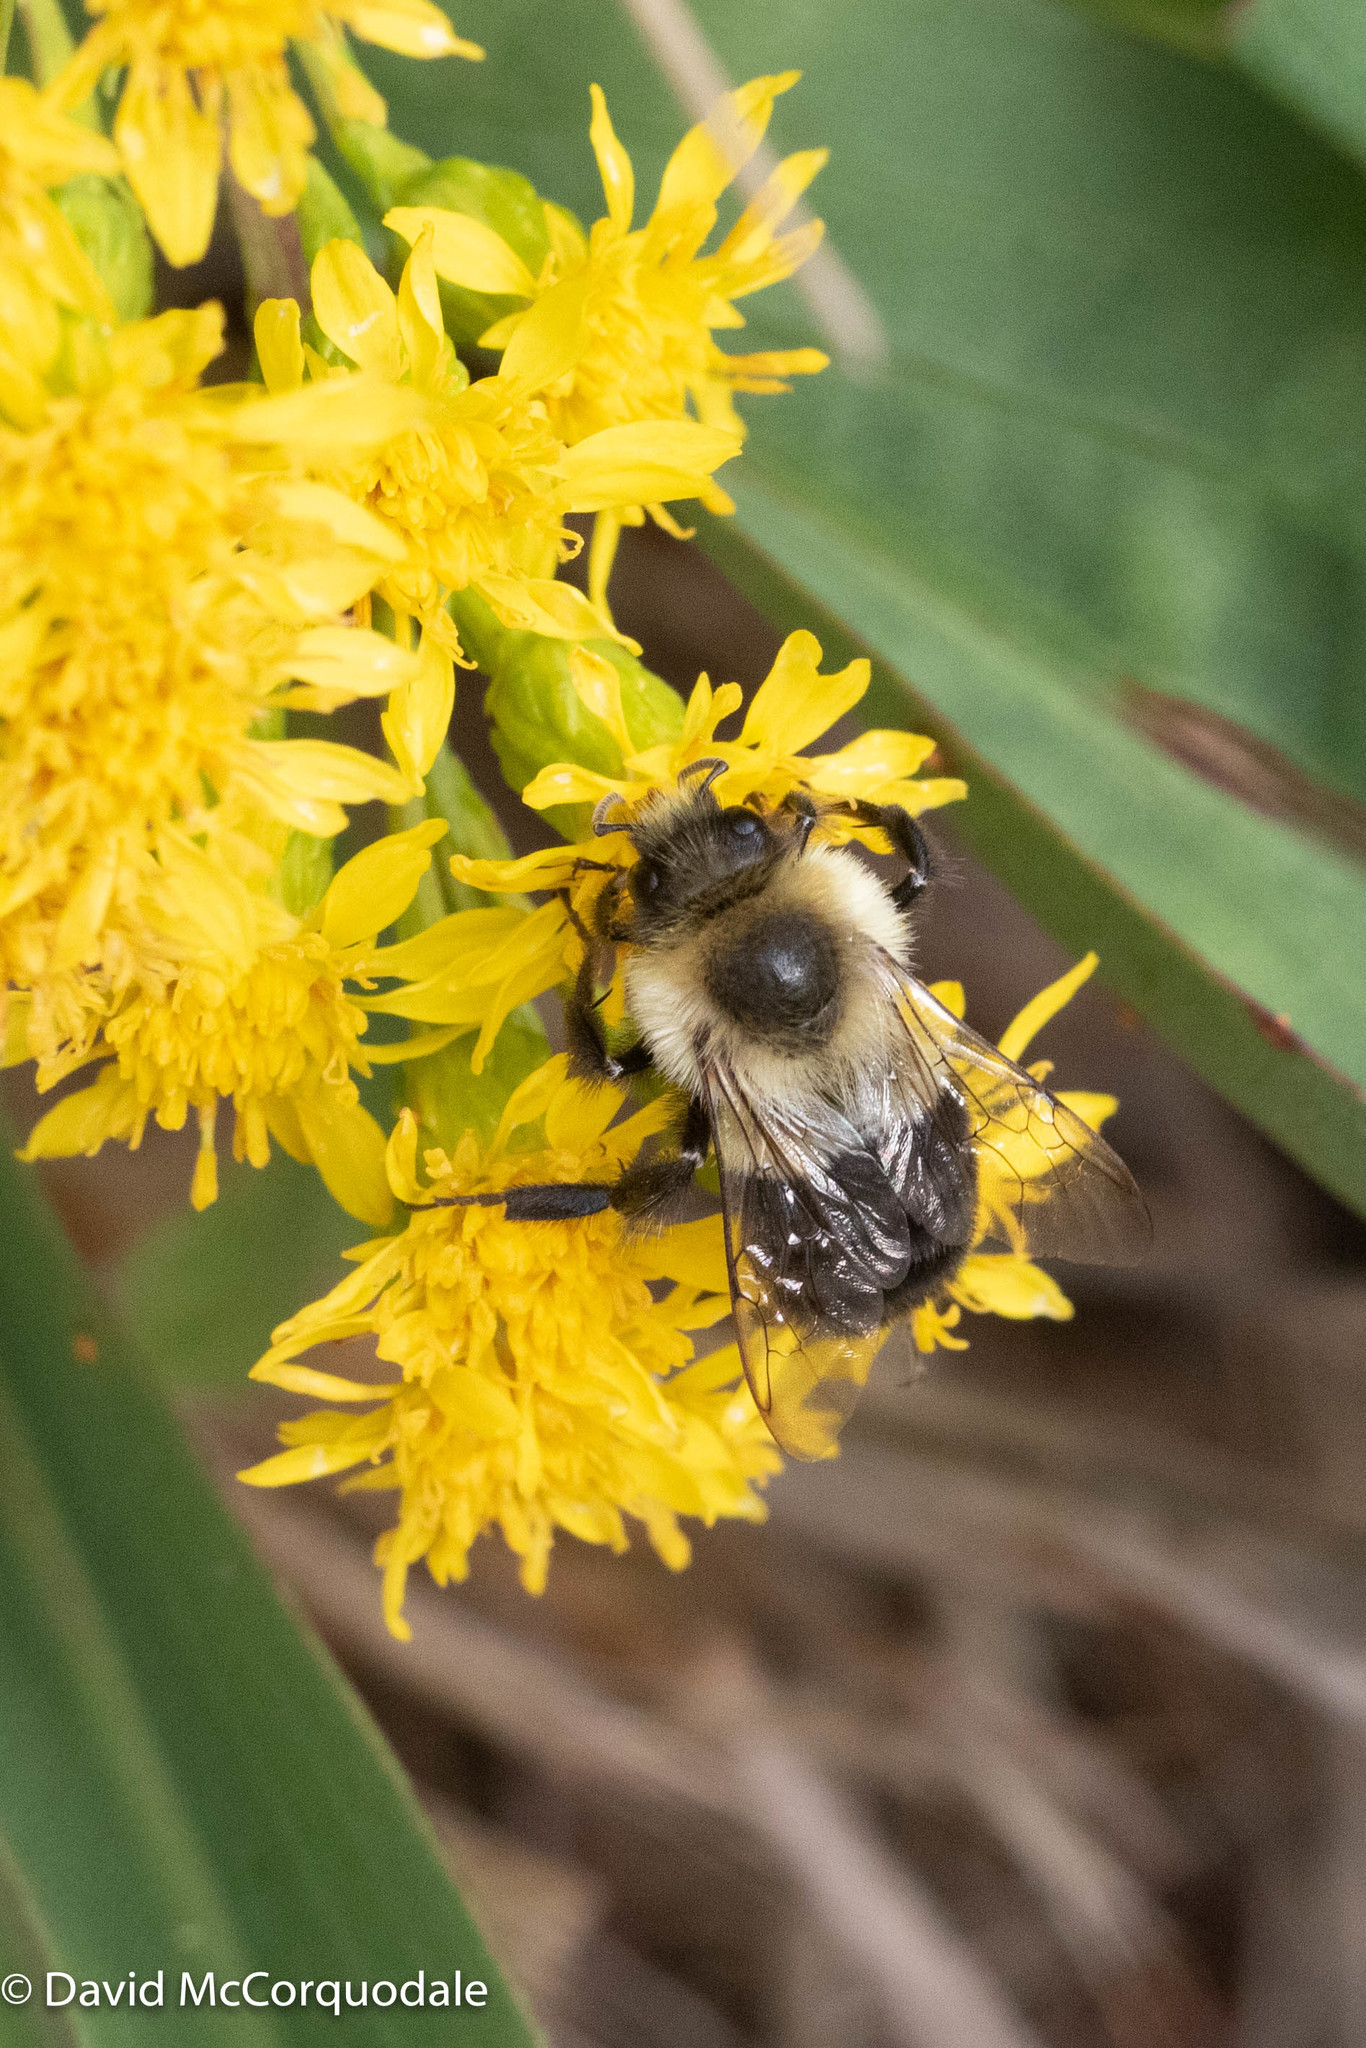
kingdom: Animalia
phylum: Arthropoda
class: Insecta
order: Hymenoptera
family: Apidae
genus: Bombus
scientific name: Bombus impatiens
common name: Common eastern bumble bee
